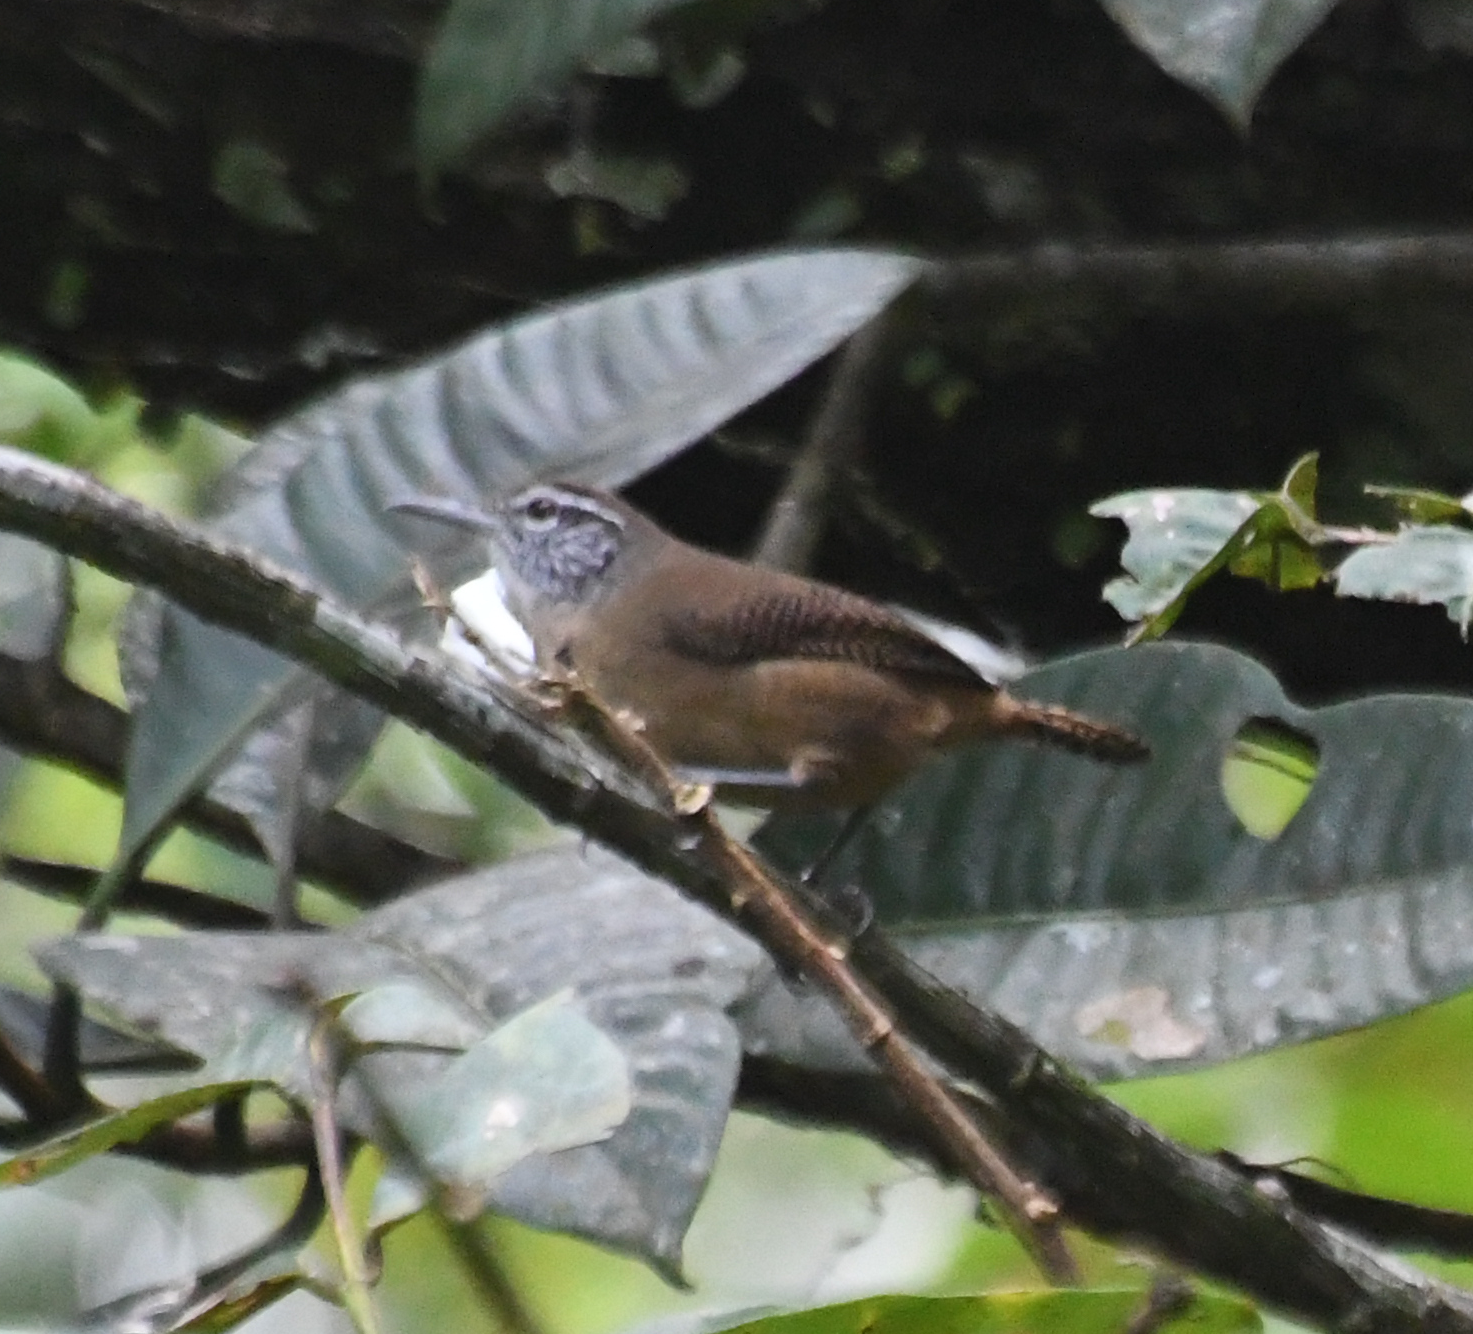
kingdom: Animalia
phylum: Chordata
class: Aves
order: Passeriformes
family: Troglodytidae
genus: Cantorchilus
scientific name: Cantorchilus leucotis
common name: Buff-breasted wren
